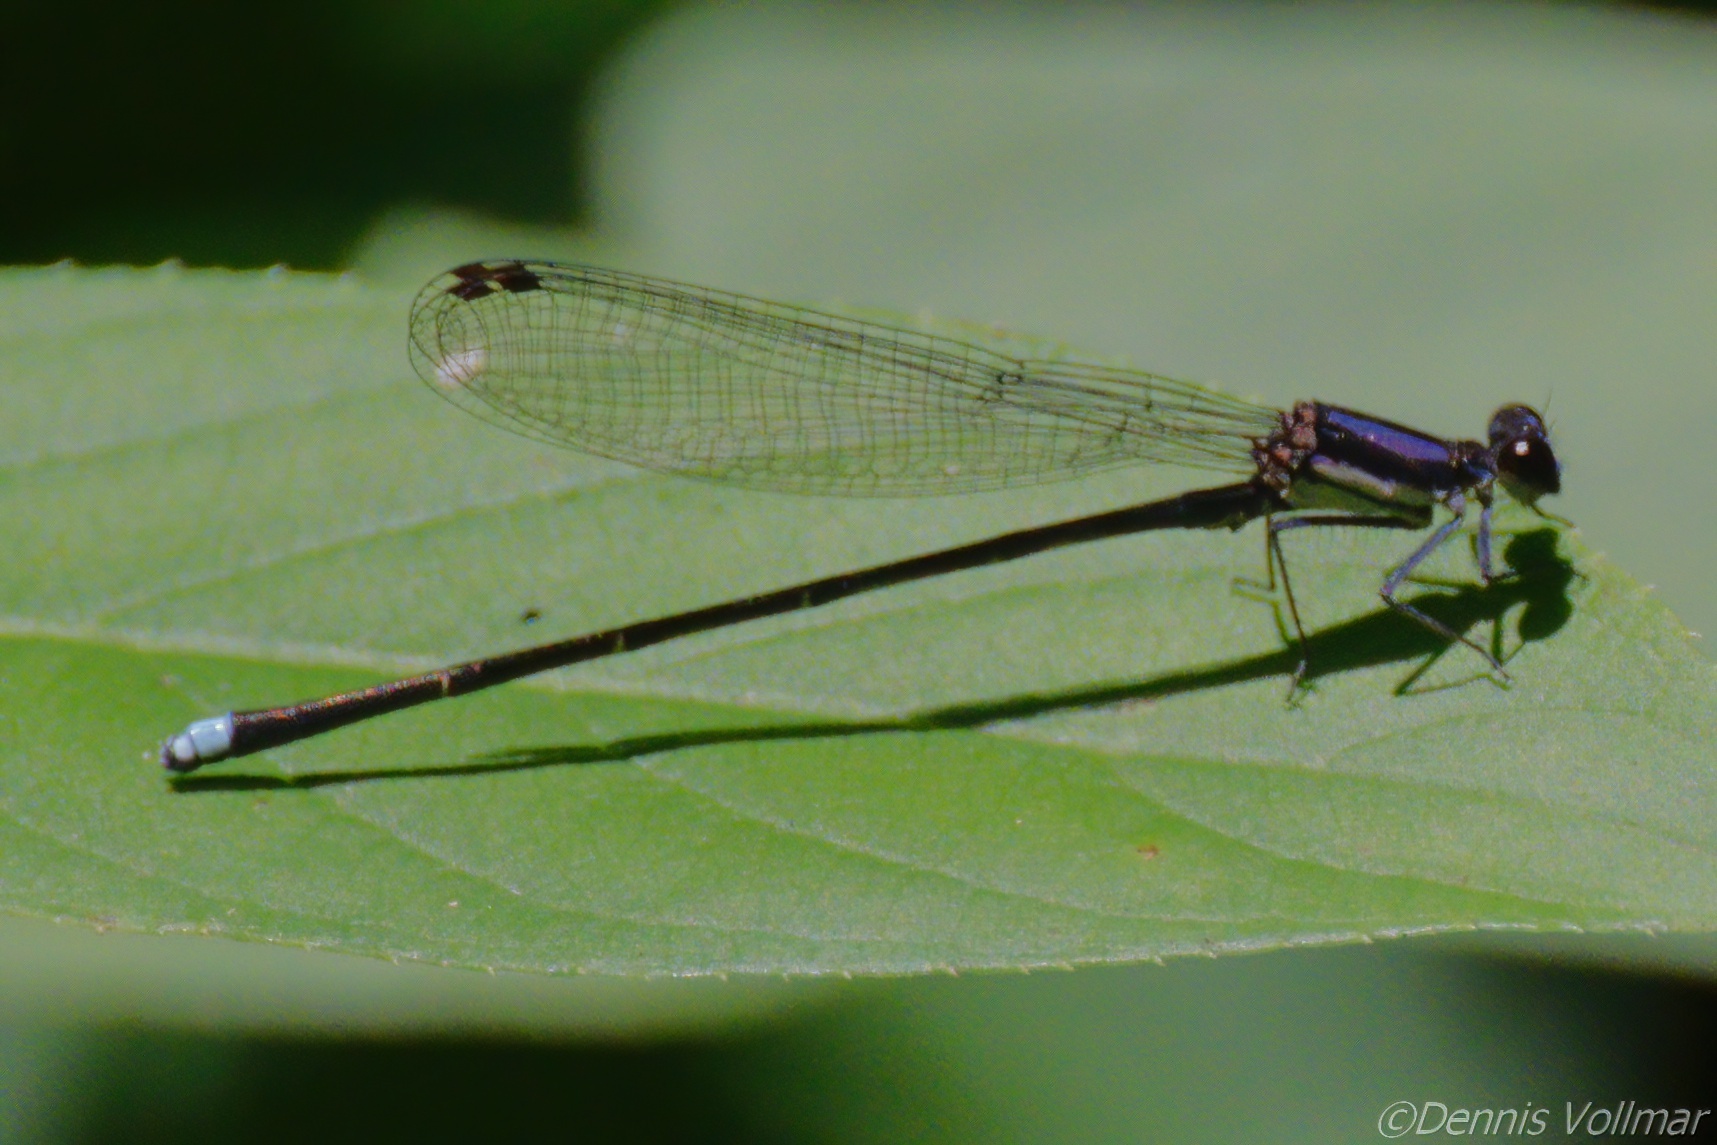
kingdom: Animalia
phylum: Arthropoda
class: Insecta
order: Odonata
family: Coenagrionidae
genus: Argia
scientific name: Argia tibialis
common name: Blue-tipped dancer
